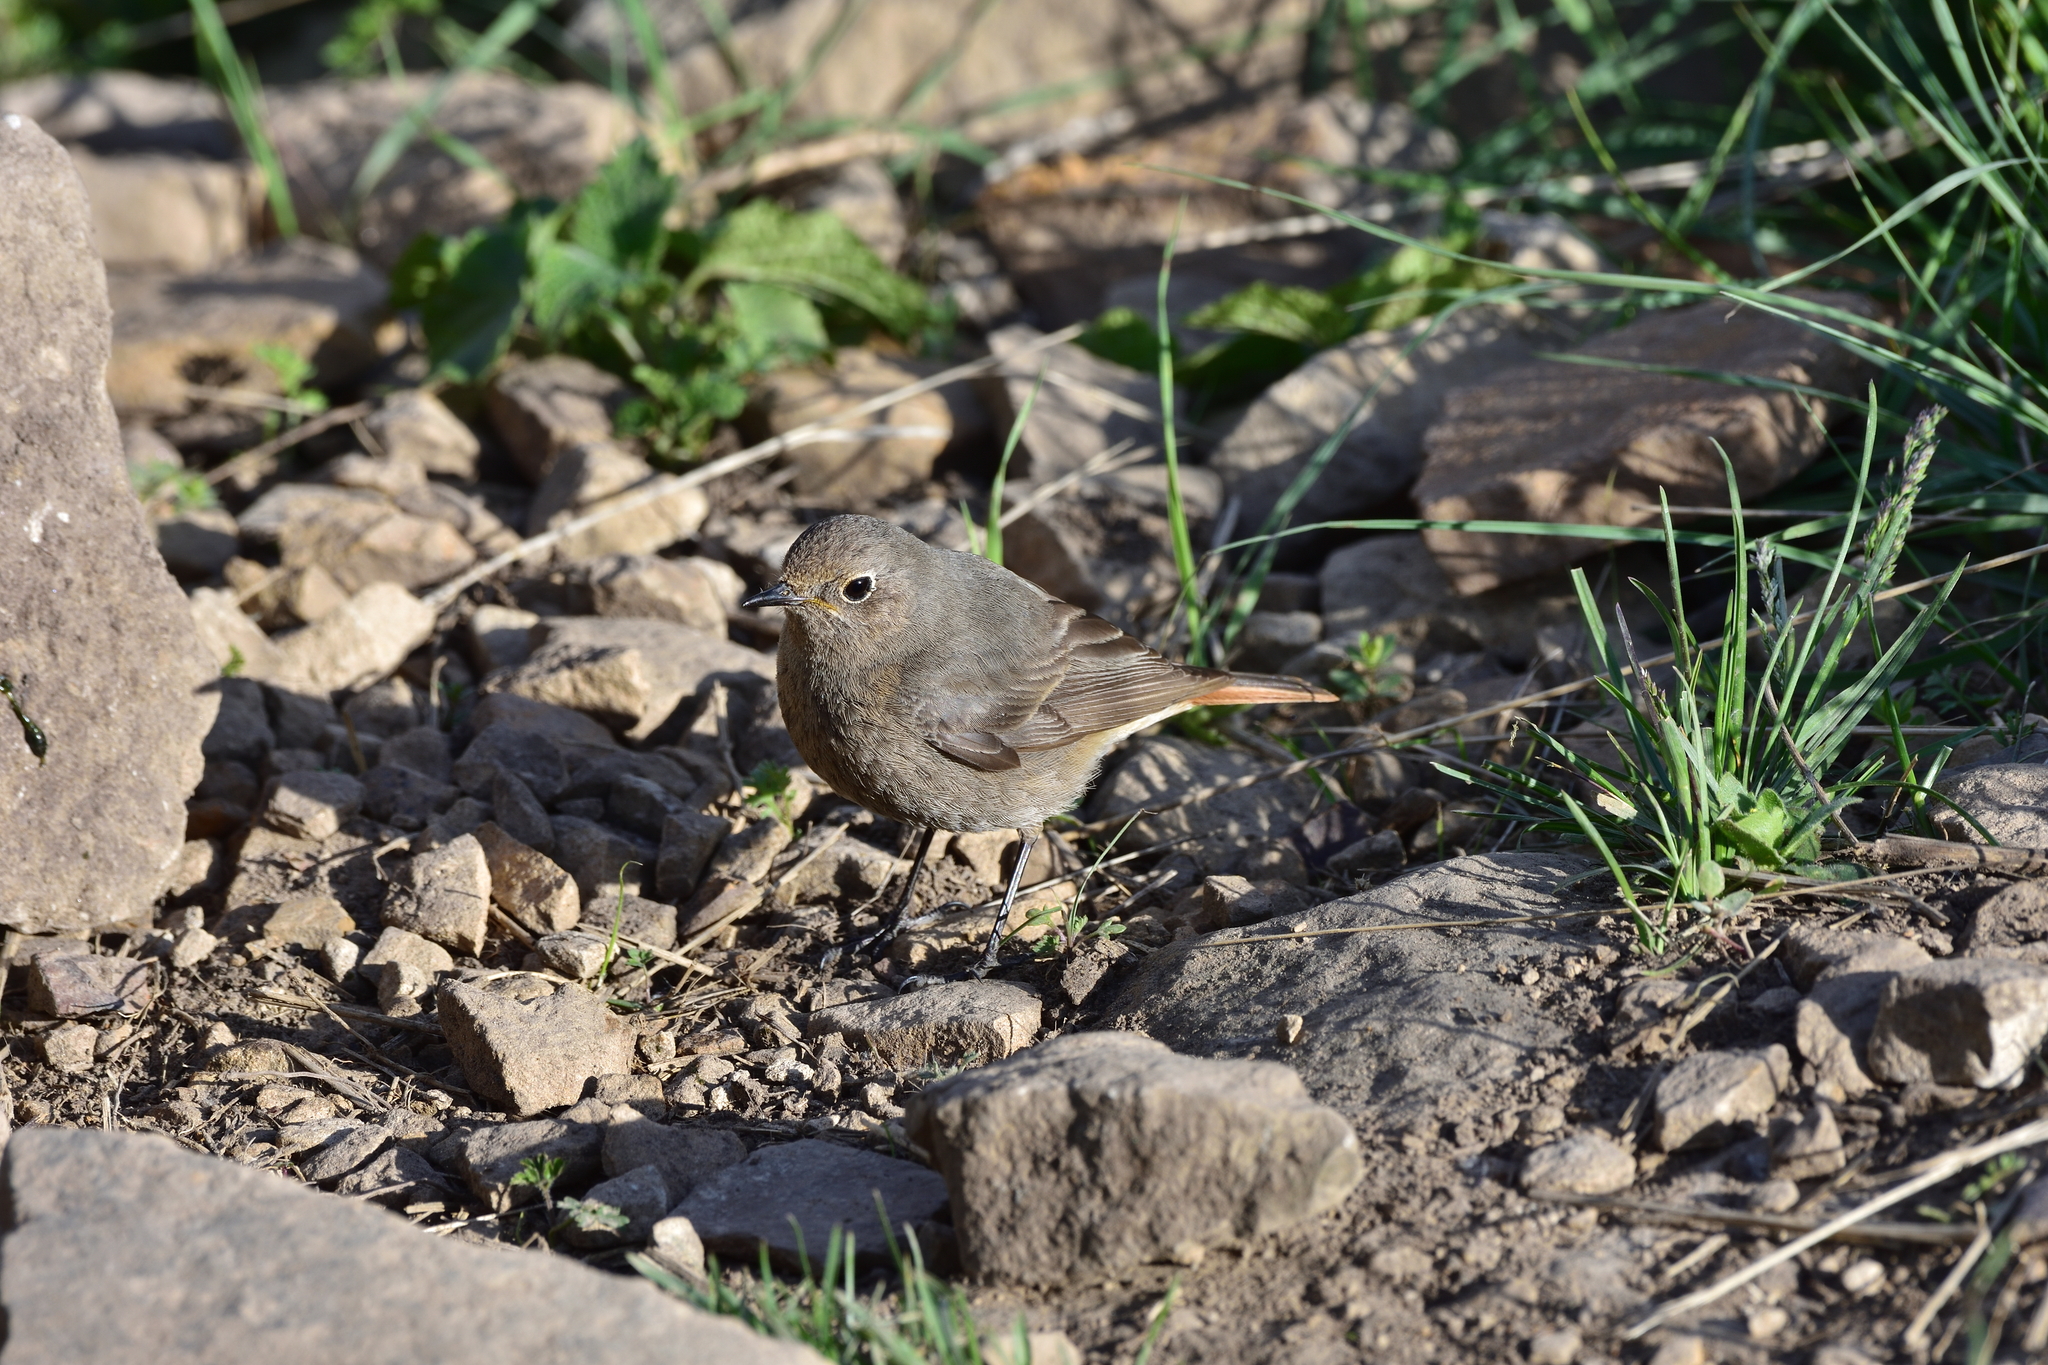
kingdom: Animalia
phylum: Chordata
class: Aves
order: Passeriformes
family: Muscicapidae
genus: Phoenicurus
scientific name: Phoenicurus ochruros
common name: Black redstart
